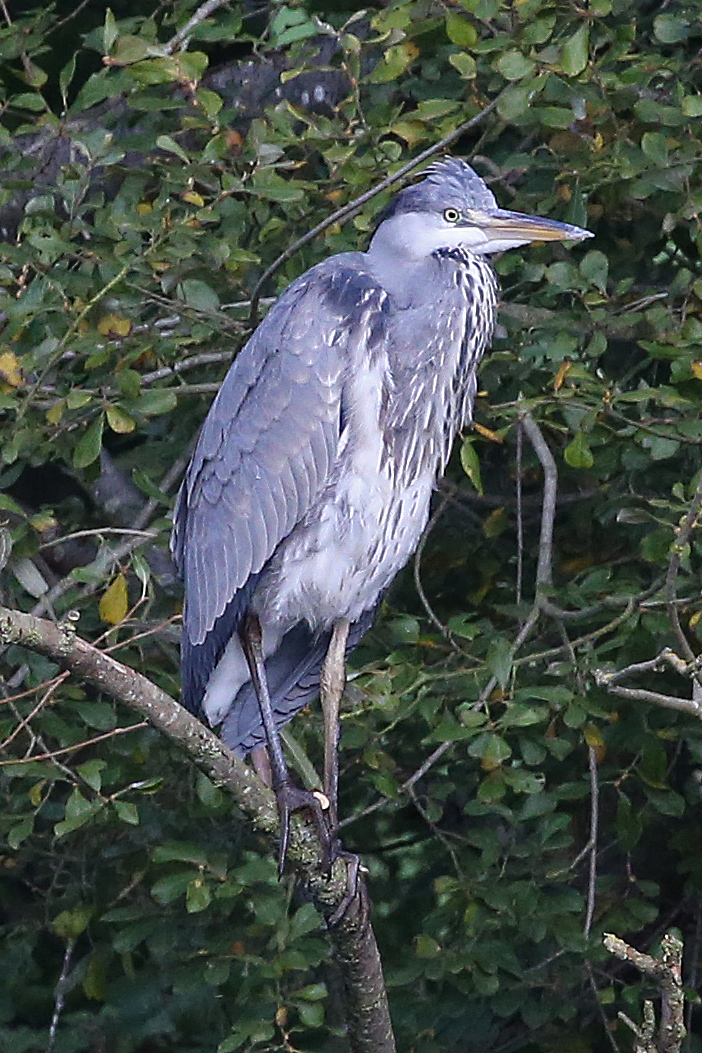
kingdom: Animalia
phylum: Chordata
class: Aves
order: Pelecaniformes
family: Ardeidae
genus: Ardea
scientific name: Ardea cinerea
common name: Grey heron
